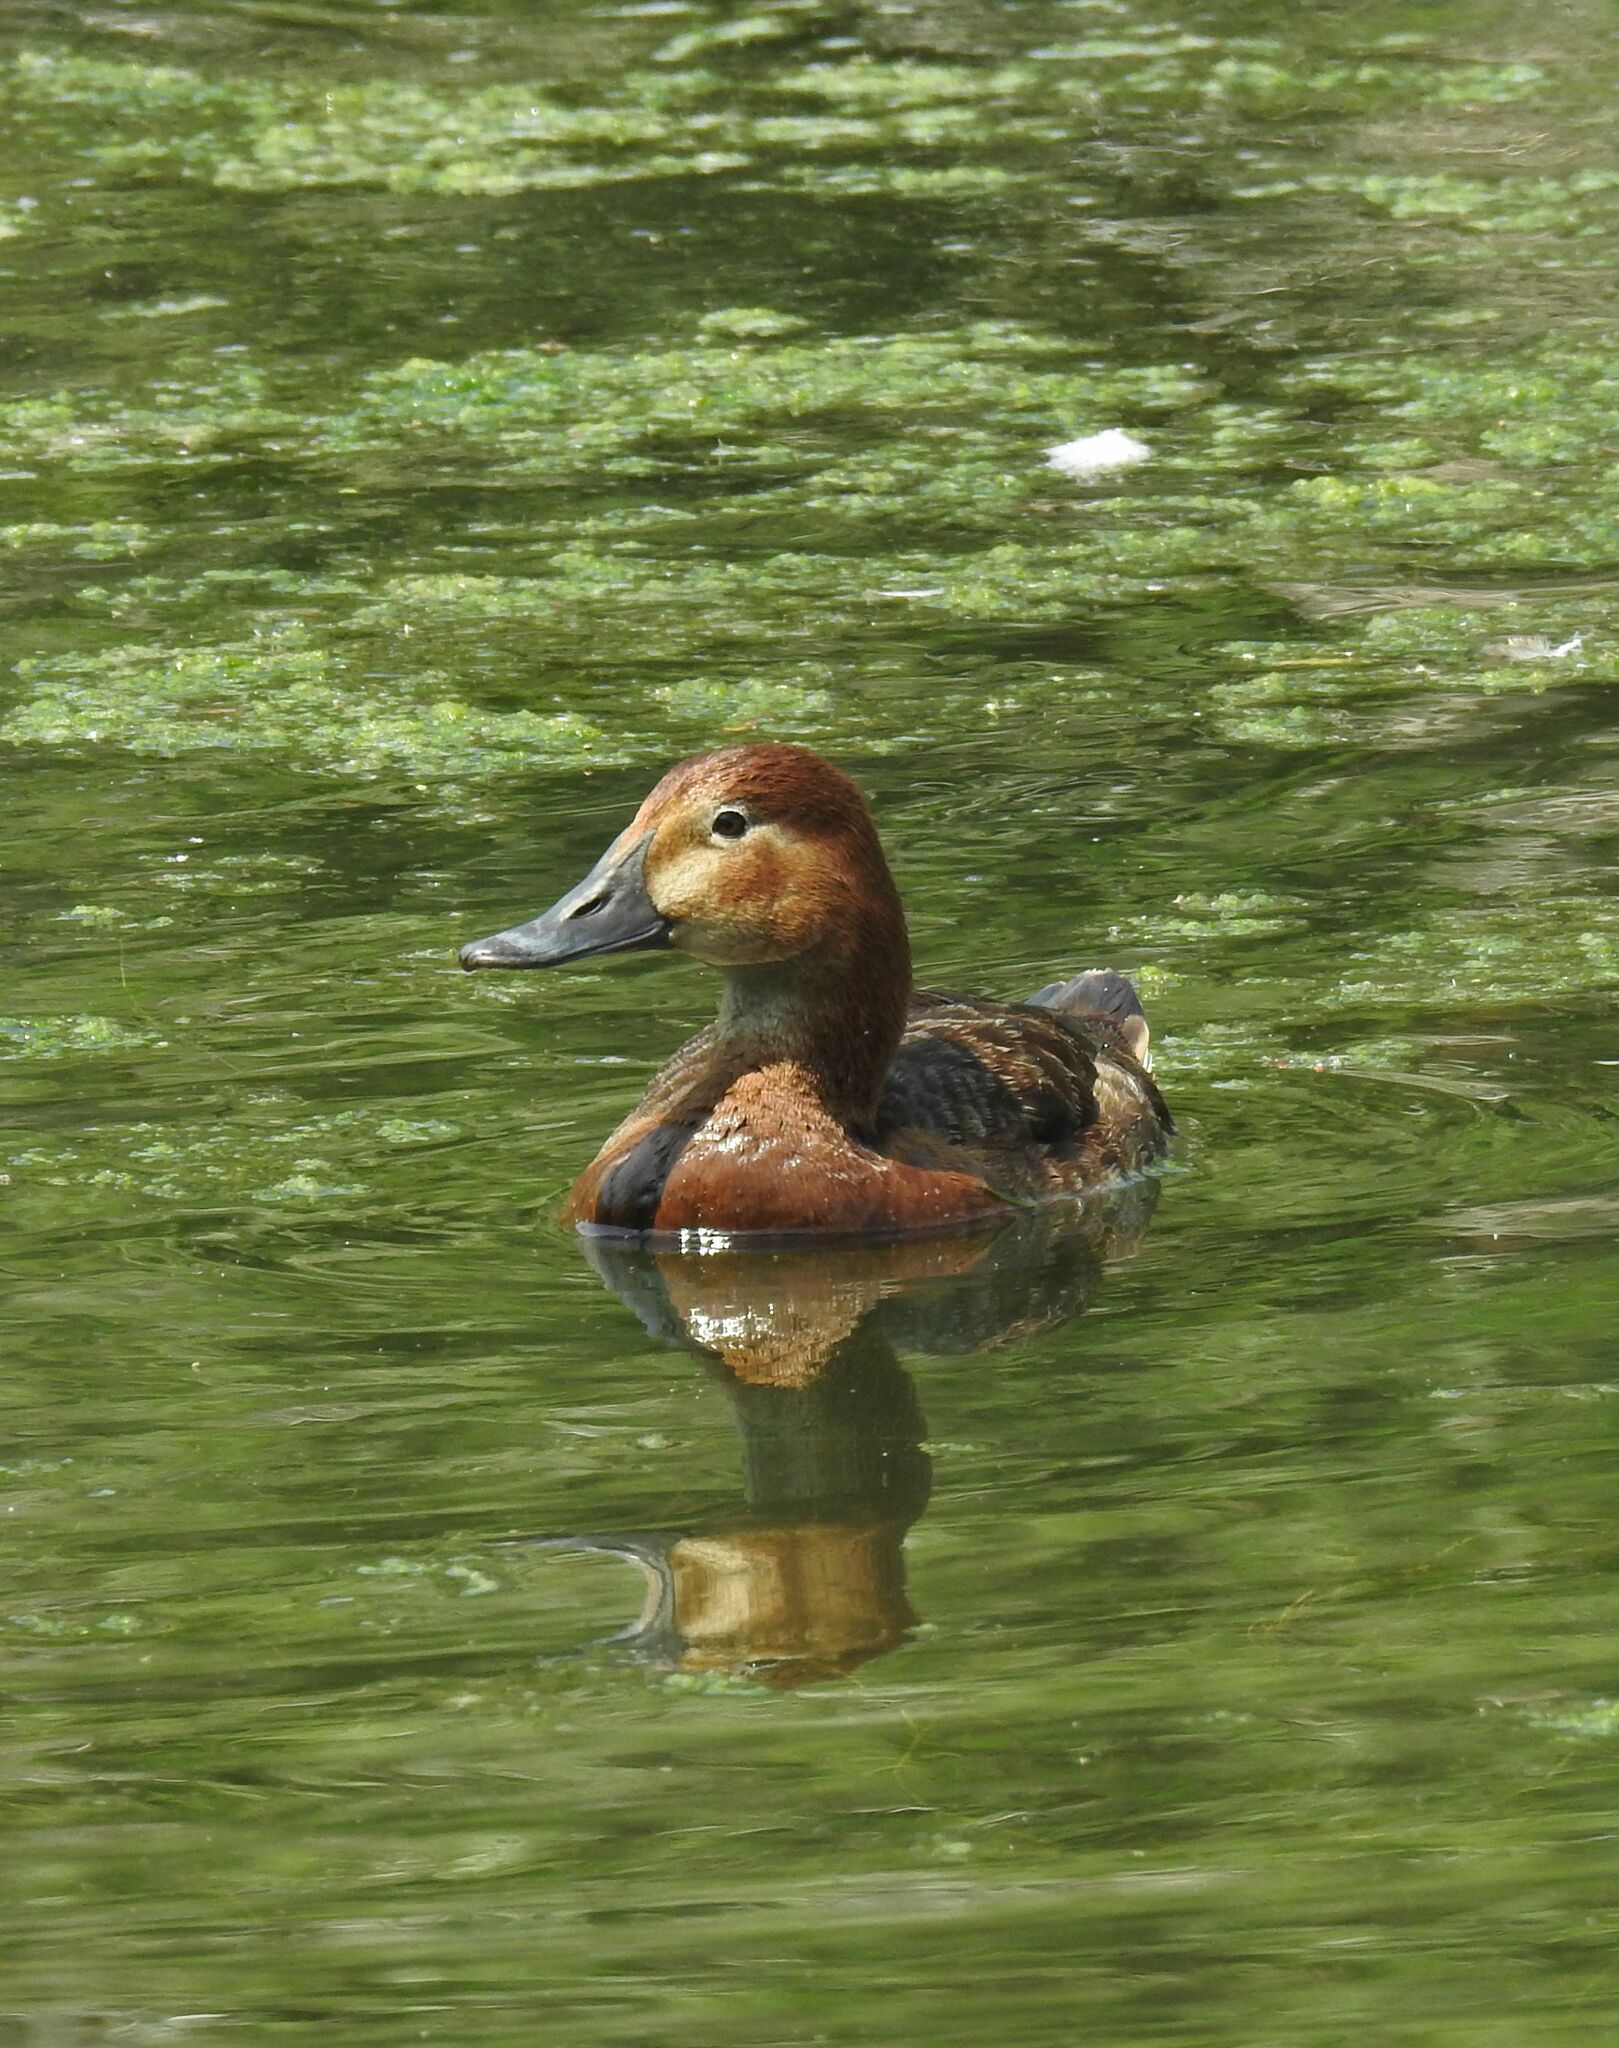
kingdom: Animalia
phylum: Chordata
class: Aves
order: Anseriformes
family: Anatidae
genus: Aythya
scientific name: Aythya ferina
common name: Common pochard
